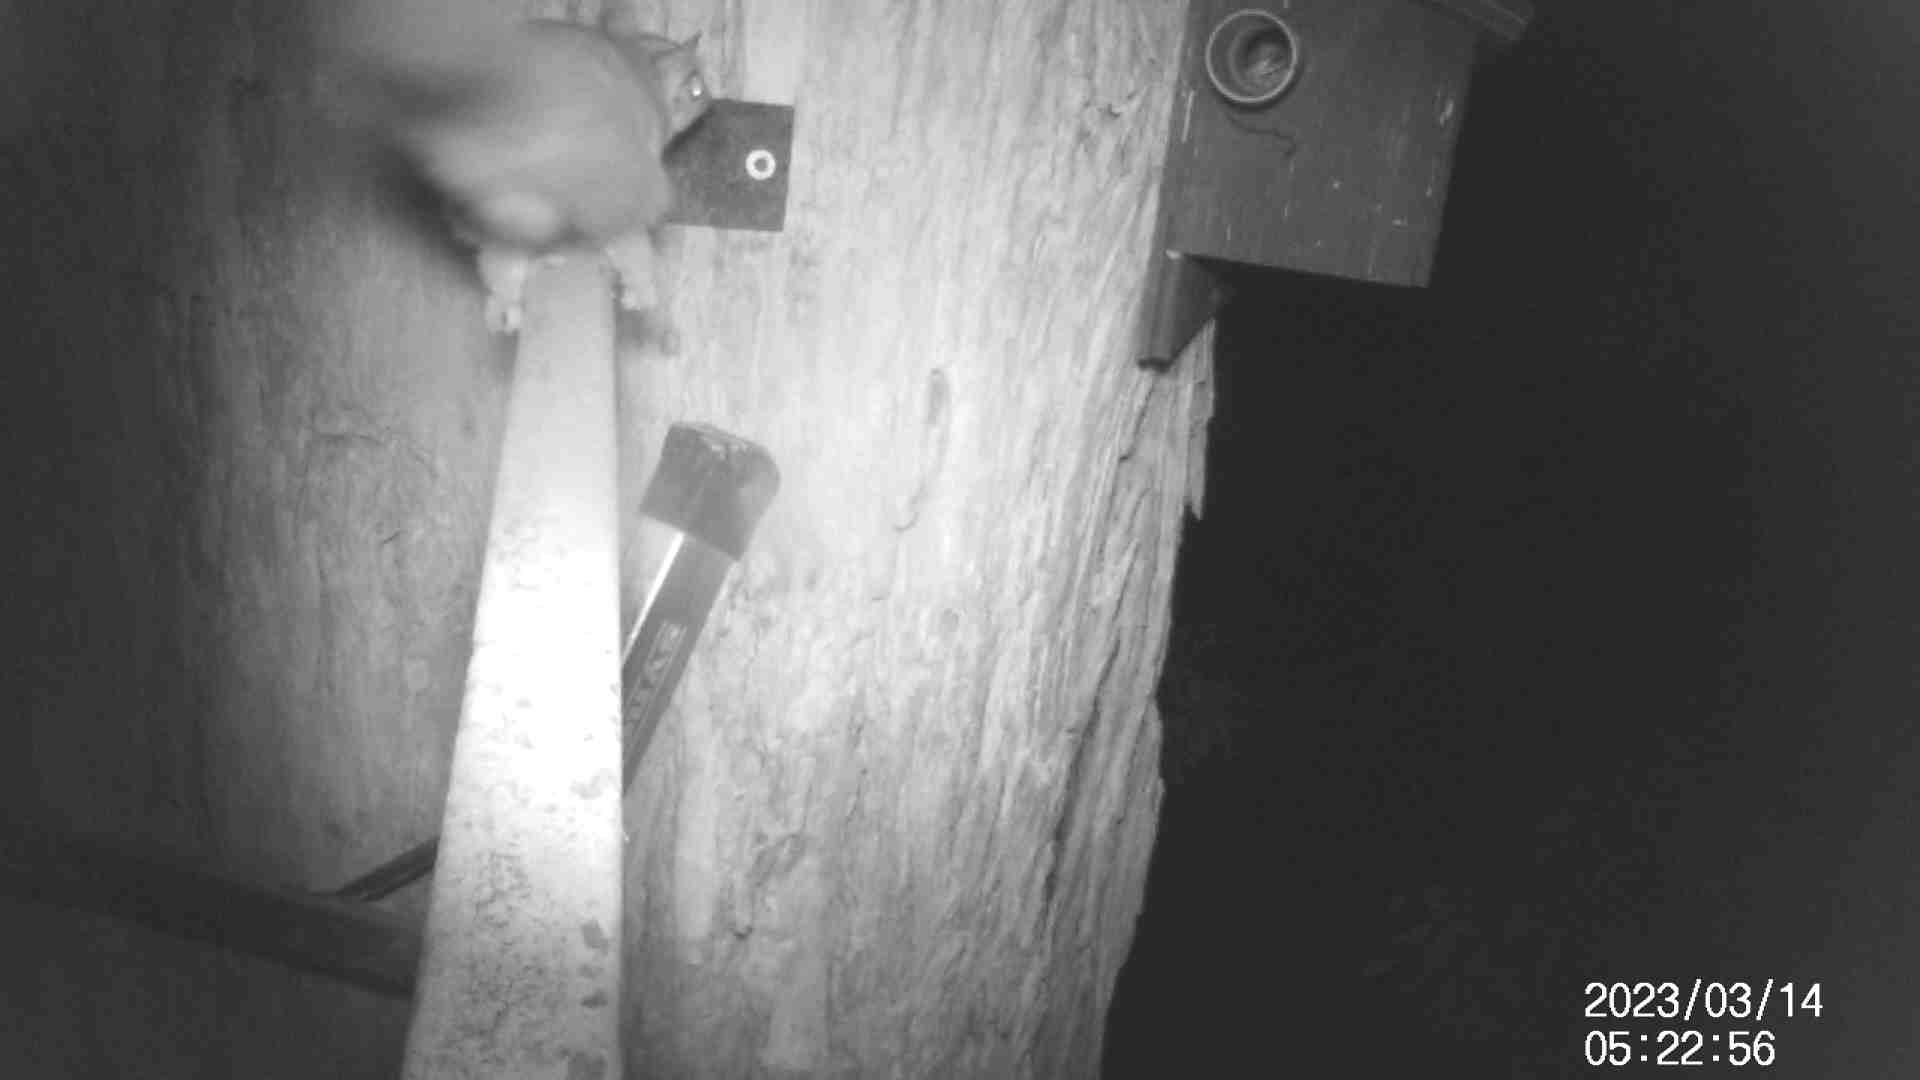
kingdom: Animalia
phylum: Chordata
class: Mammalia
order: Diprotodontia
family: Petauridae
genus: Petaurus
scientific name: Petaurus breviceps
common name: Sugar glider
